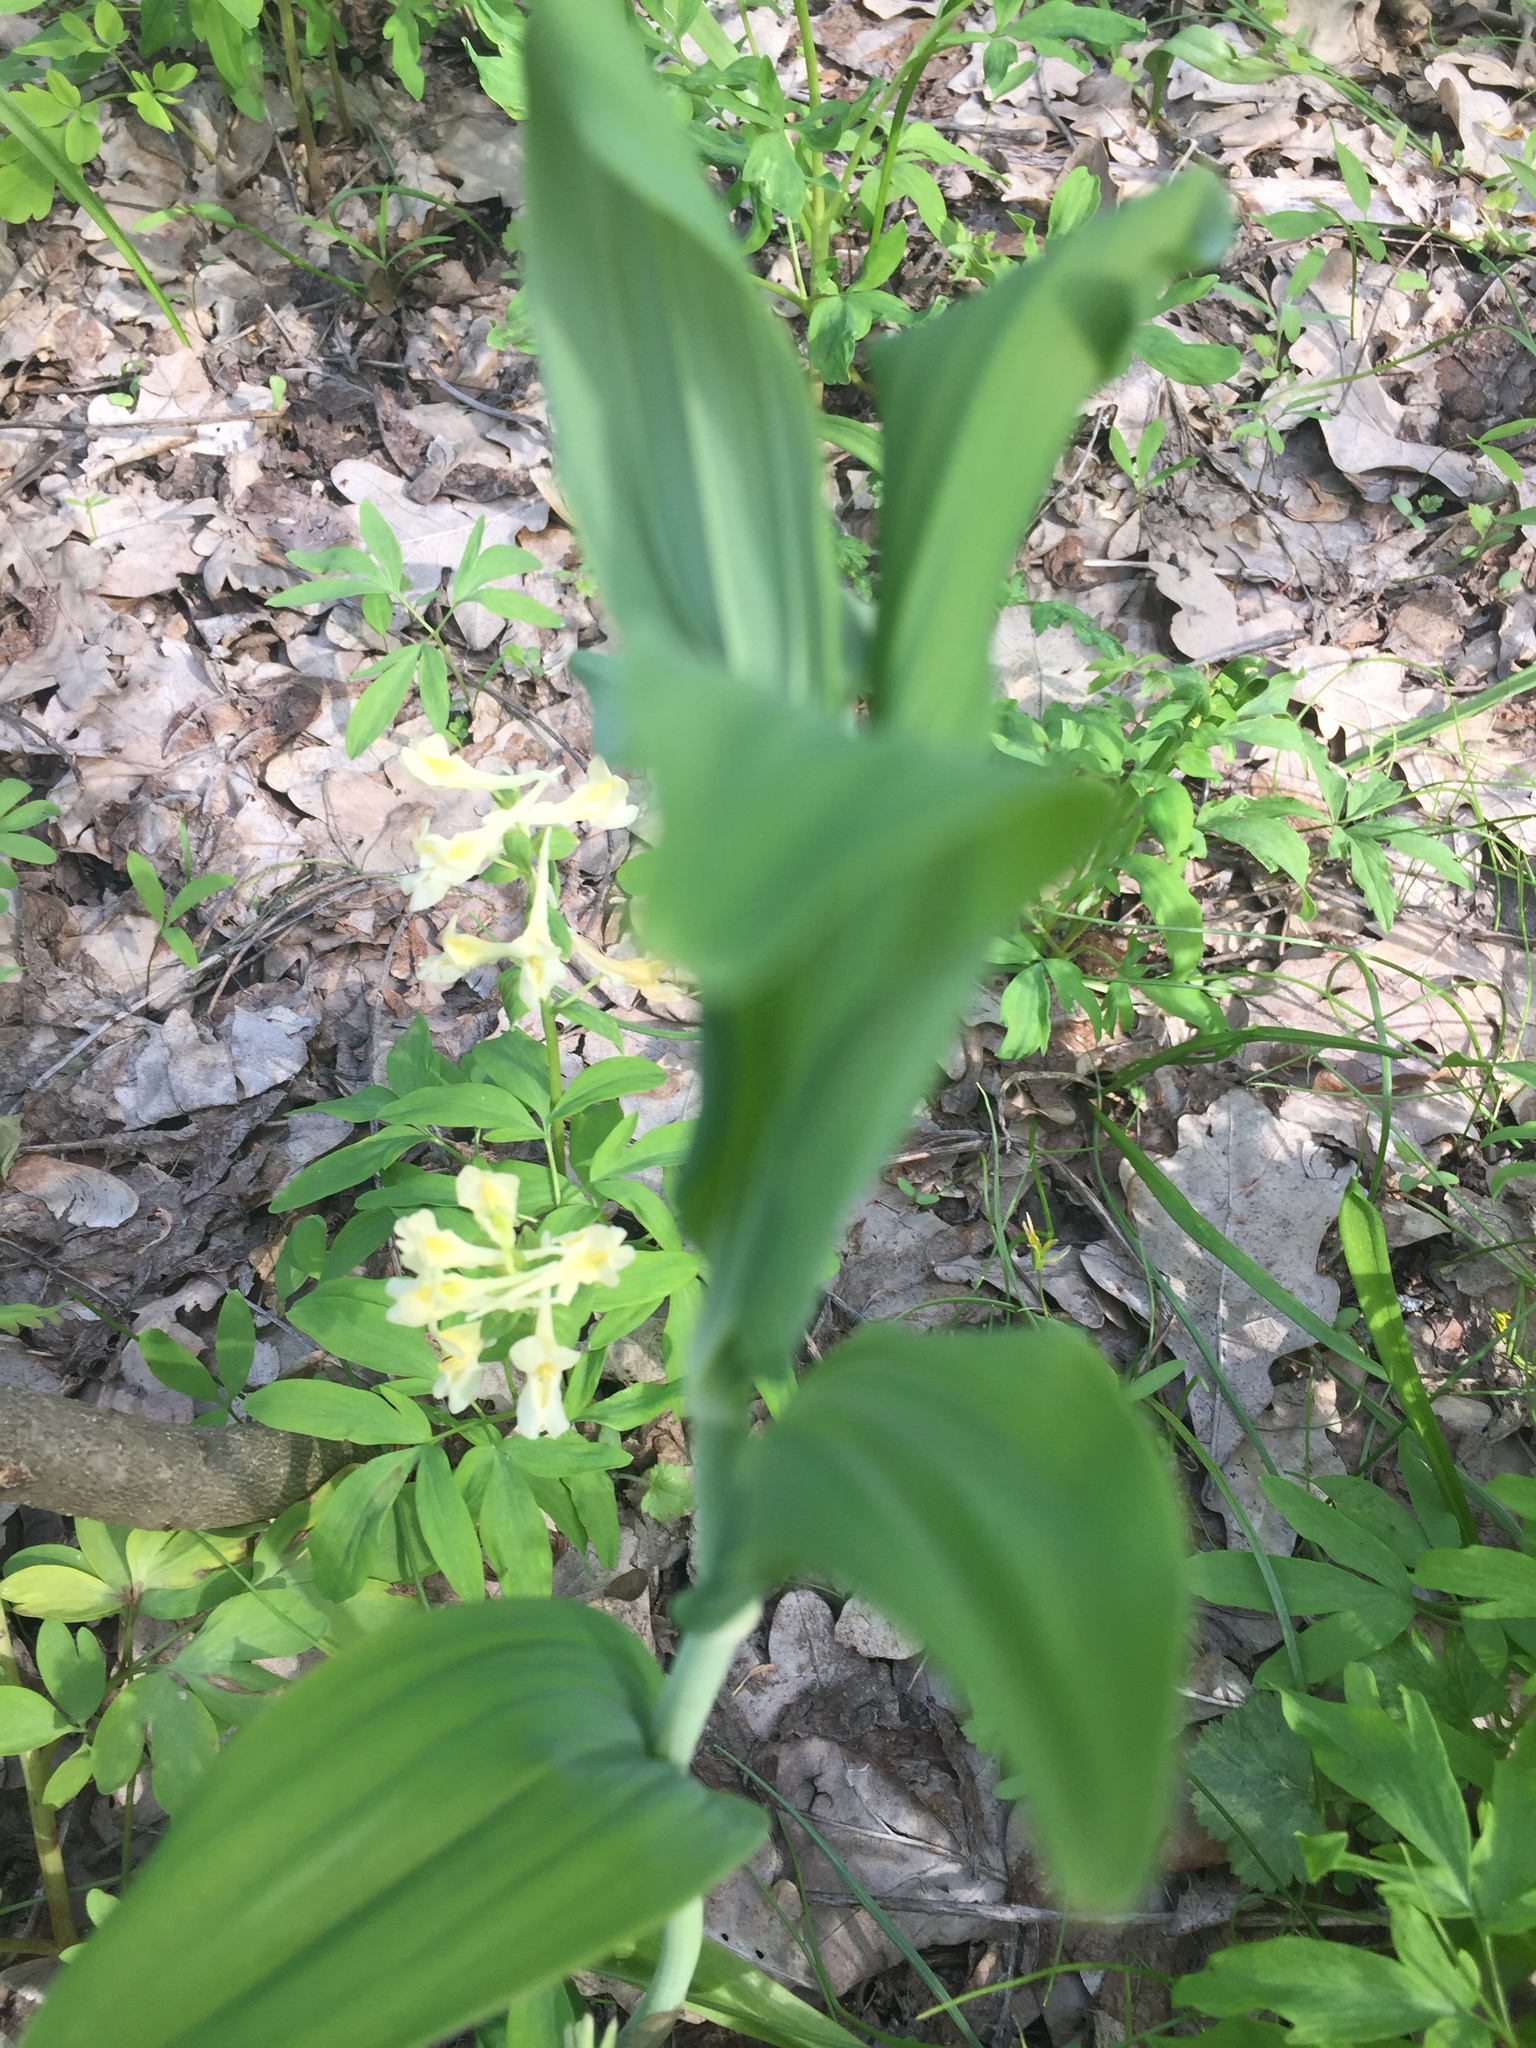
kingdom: Plantae
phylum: Tracheophyta
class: Liliopsida
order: Asparagales
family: Asparagaceae
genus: Polygonatum
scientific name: Polygonatum multiflorum
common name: Solomon's-seal
